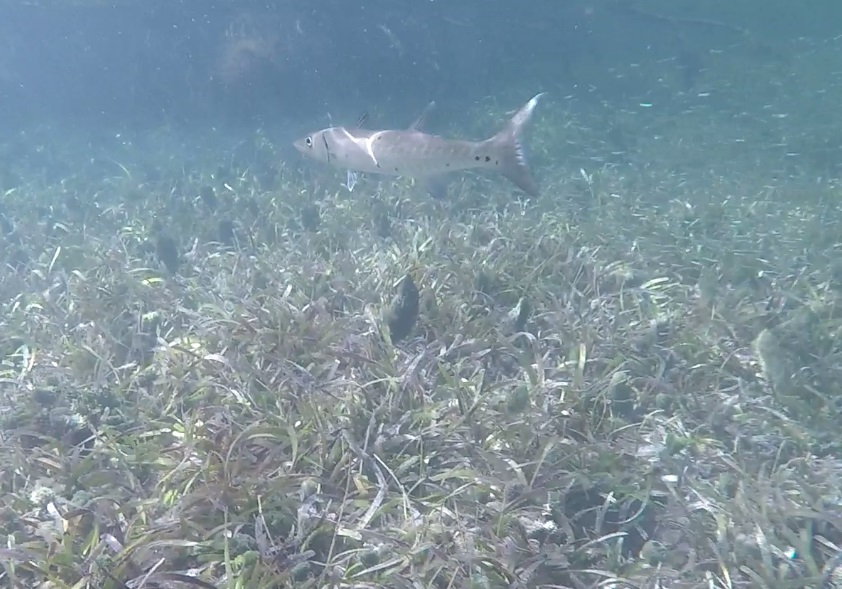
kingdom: Animalia
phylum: Chordata
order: Perciformes
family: Sphyraenidae
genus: Sphyraena
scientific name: Sphyraena barracuda
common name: Great barracuda
